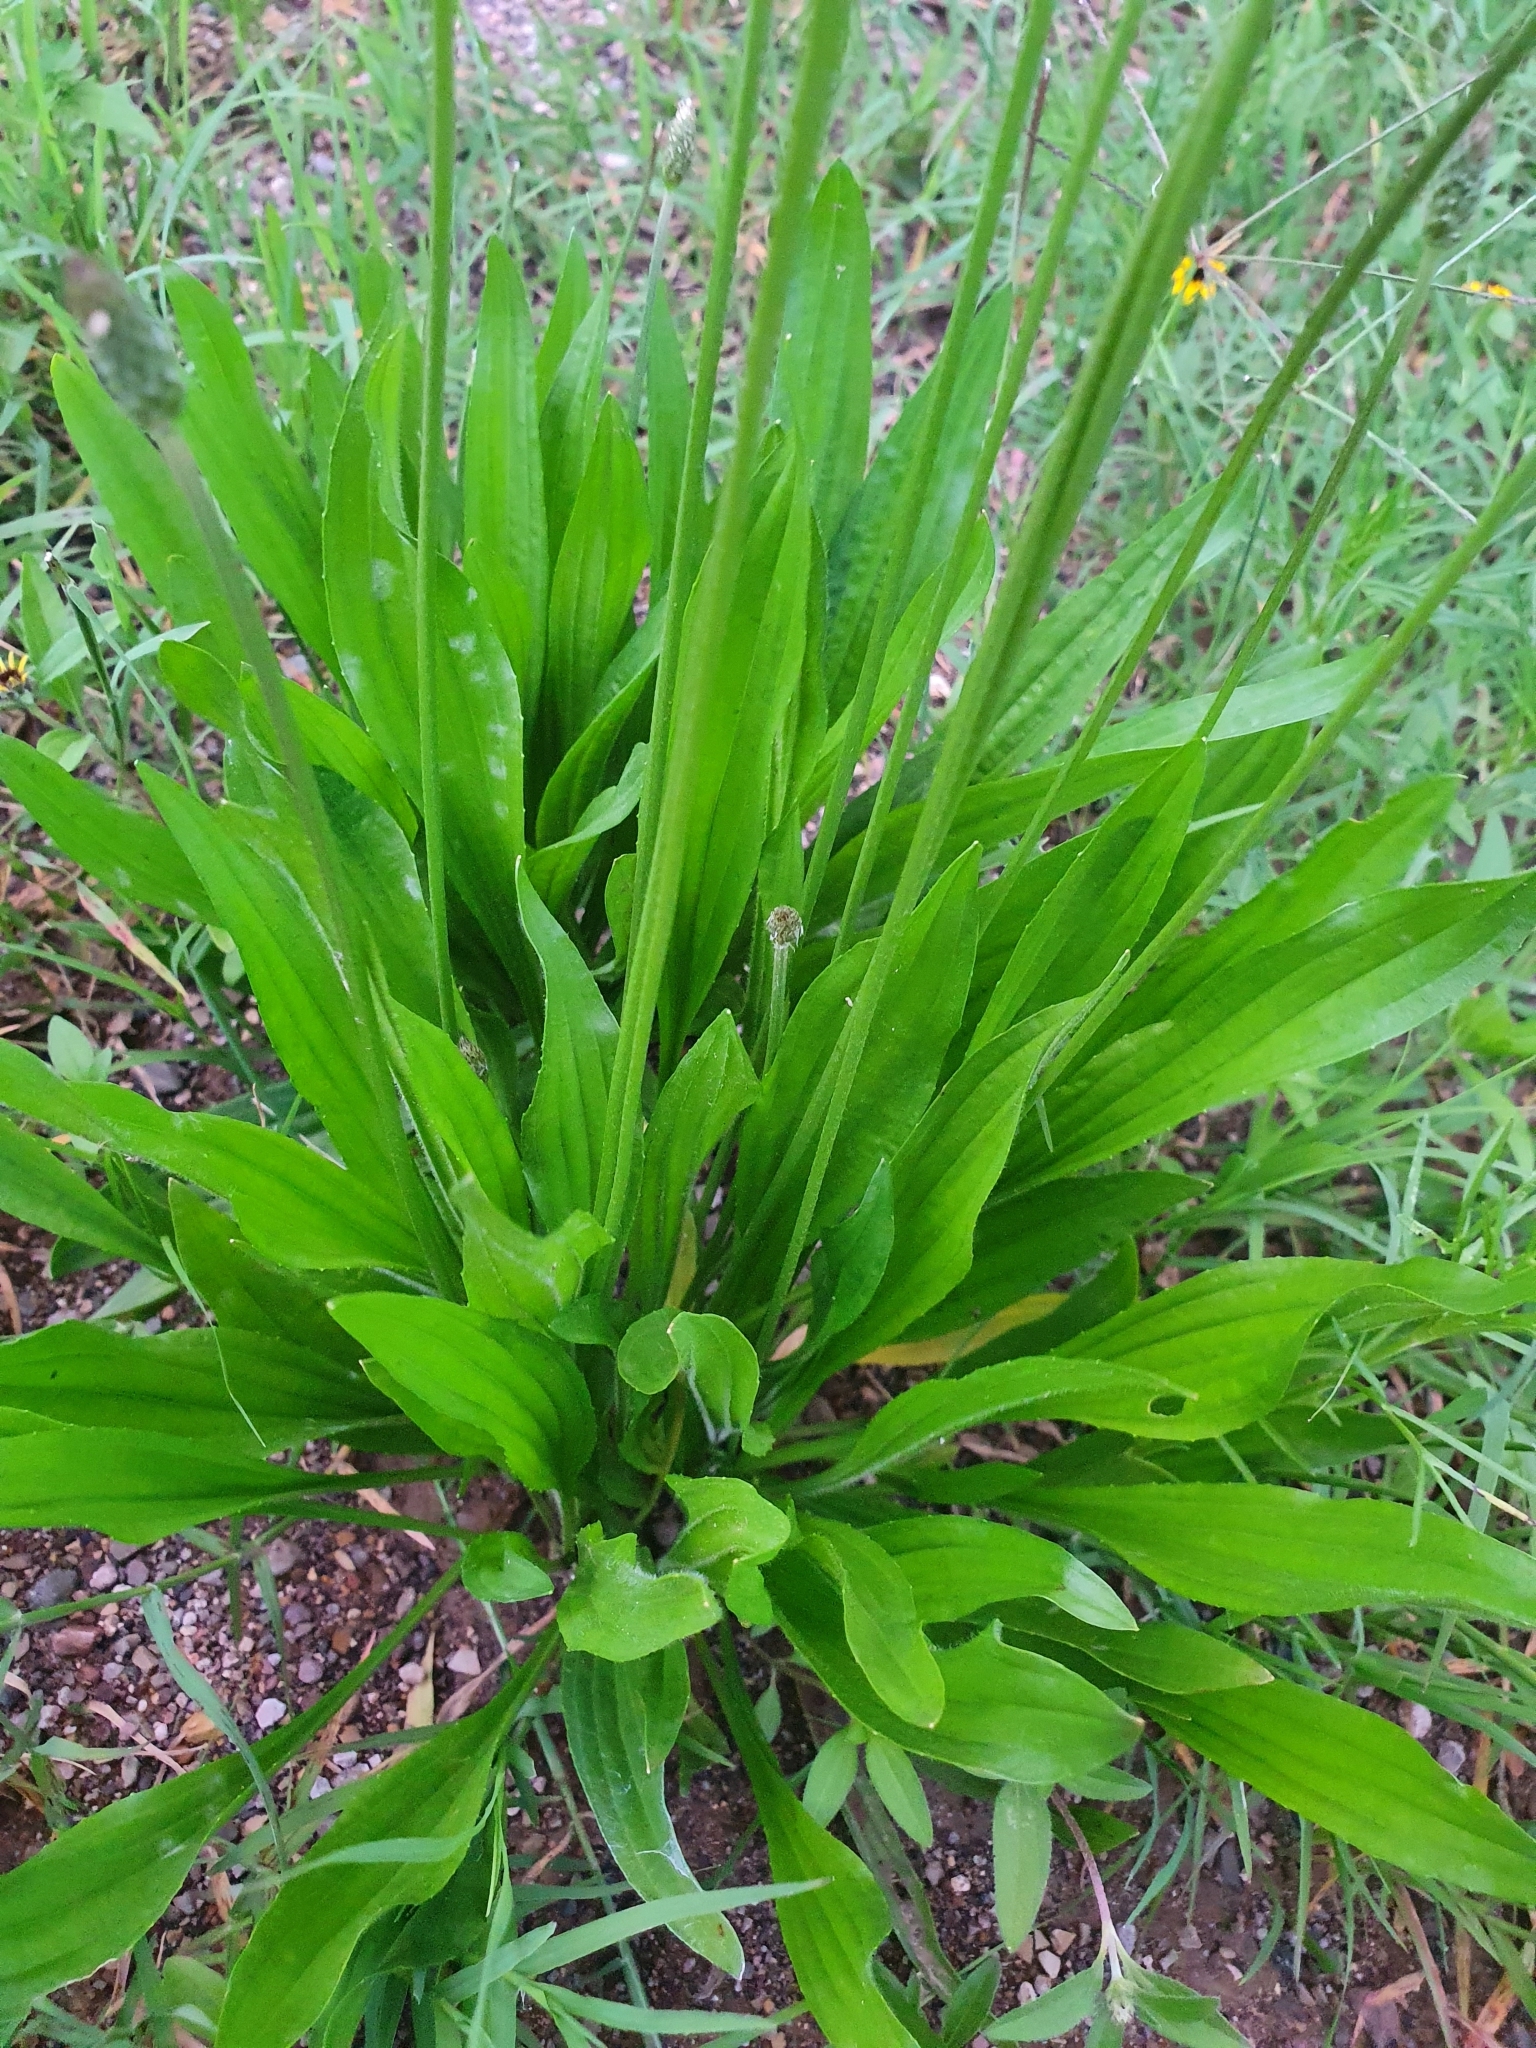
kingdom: Plantae
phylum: Tracheophyta
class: Magnoliopsida
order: Lamiales
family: Plantaginaceae
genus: Plantago
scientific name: Plantago lanceolata
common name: Ribwort plantain
